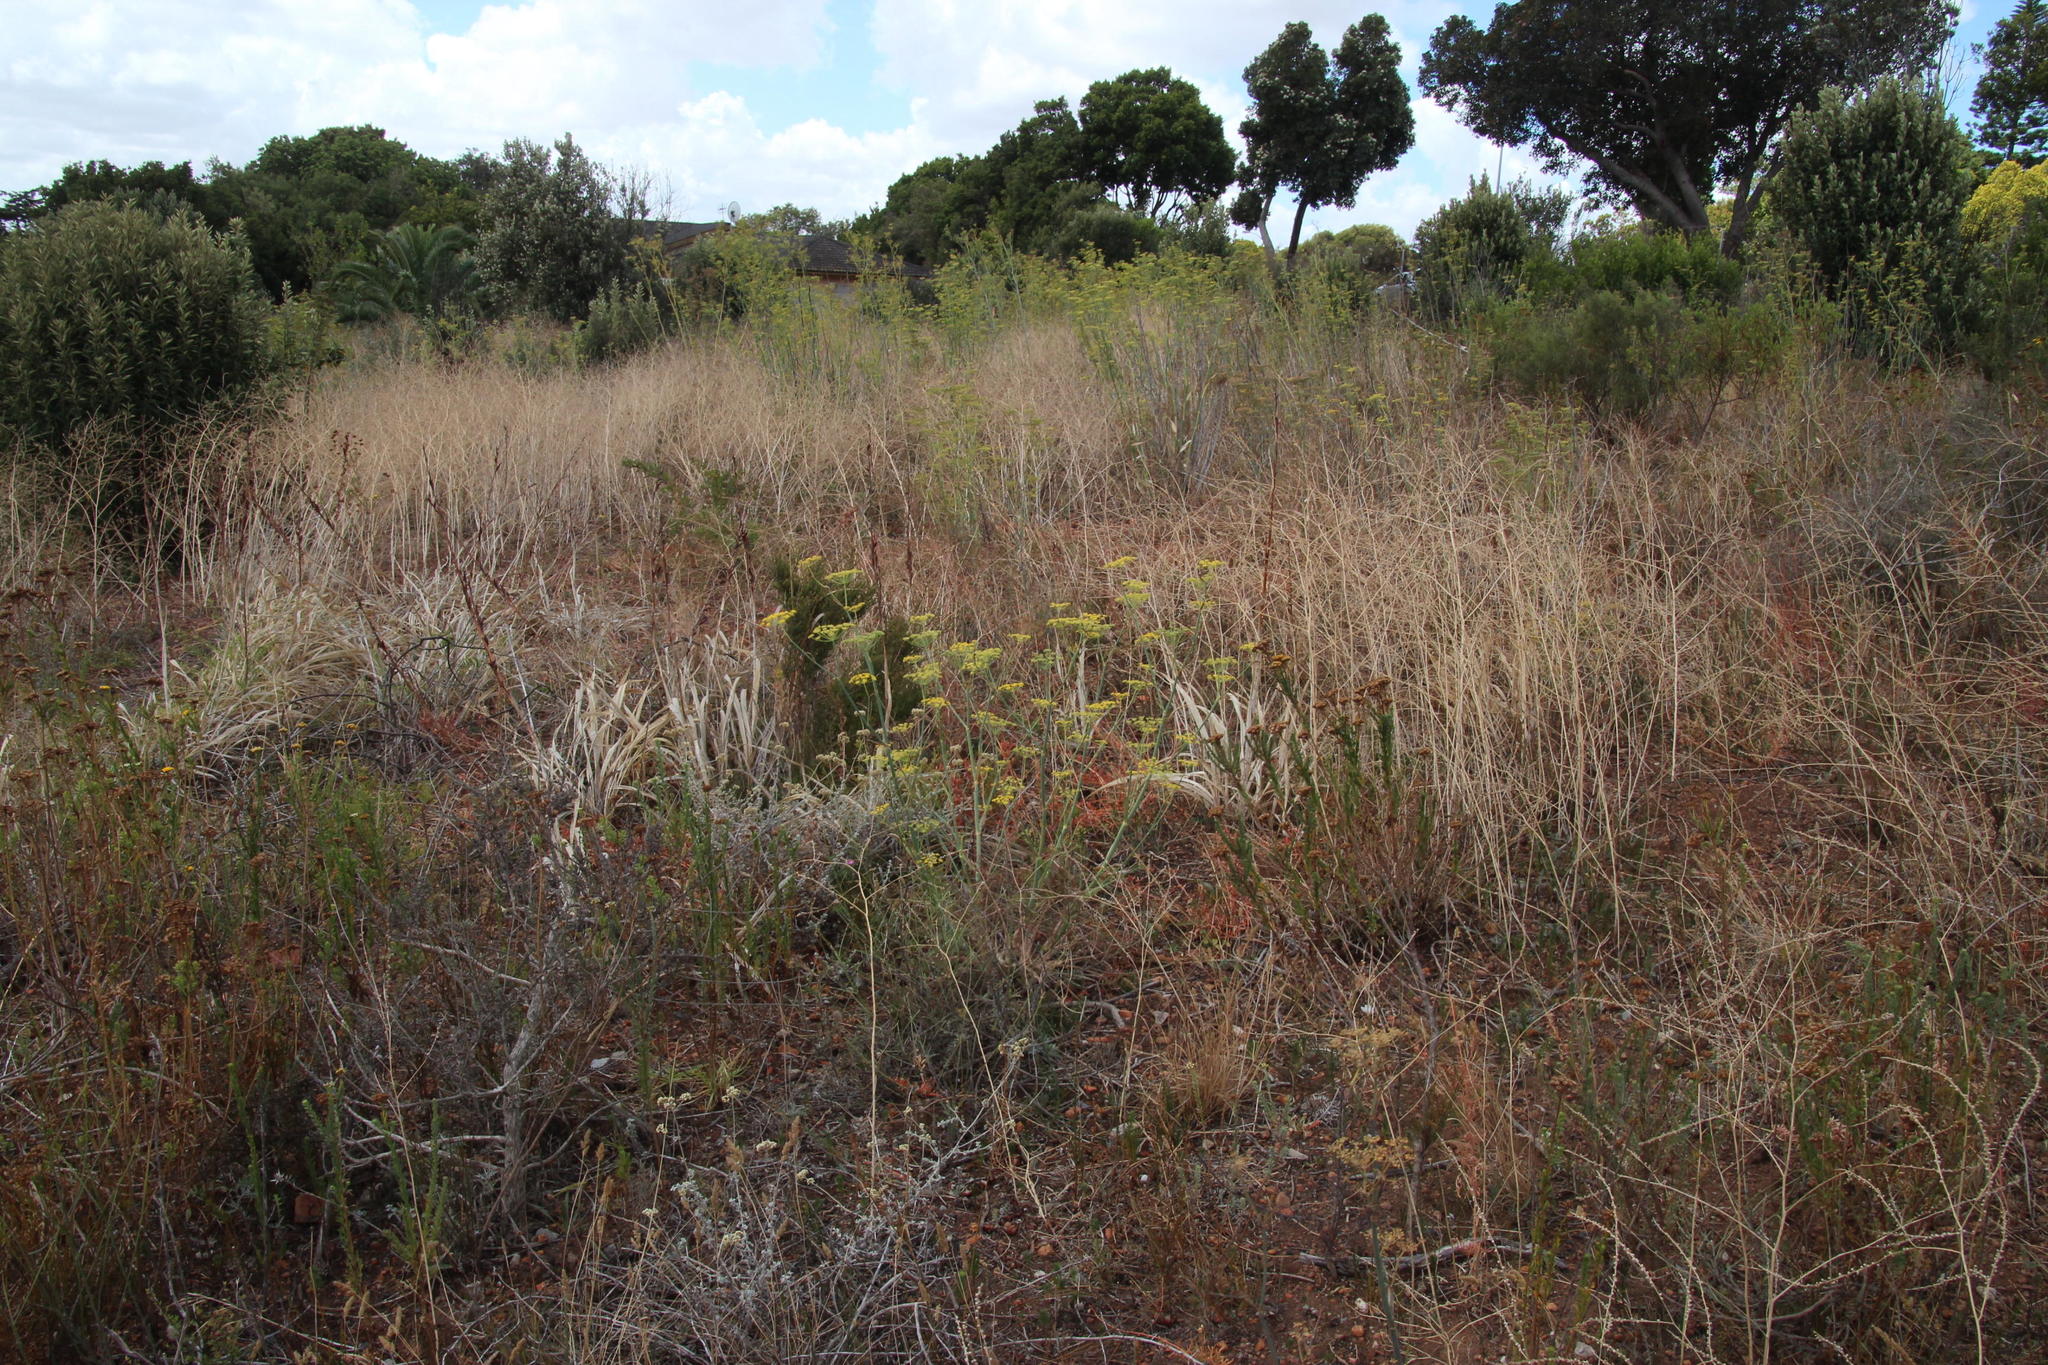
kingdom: Plantae
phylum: Tracheophyta
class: Magnoliopsida
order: Apiales
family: Apiaceae
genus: Foeniculum
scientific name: Foeniculum vulgare
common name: Fennel
